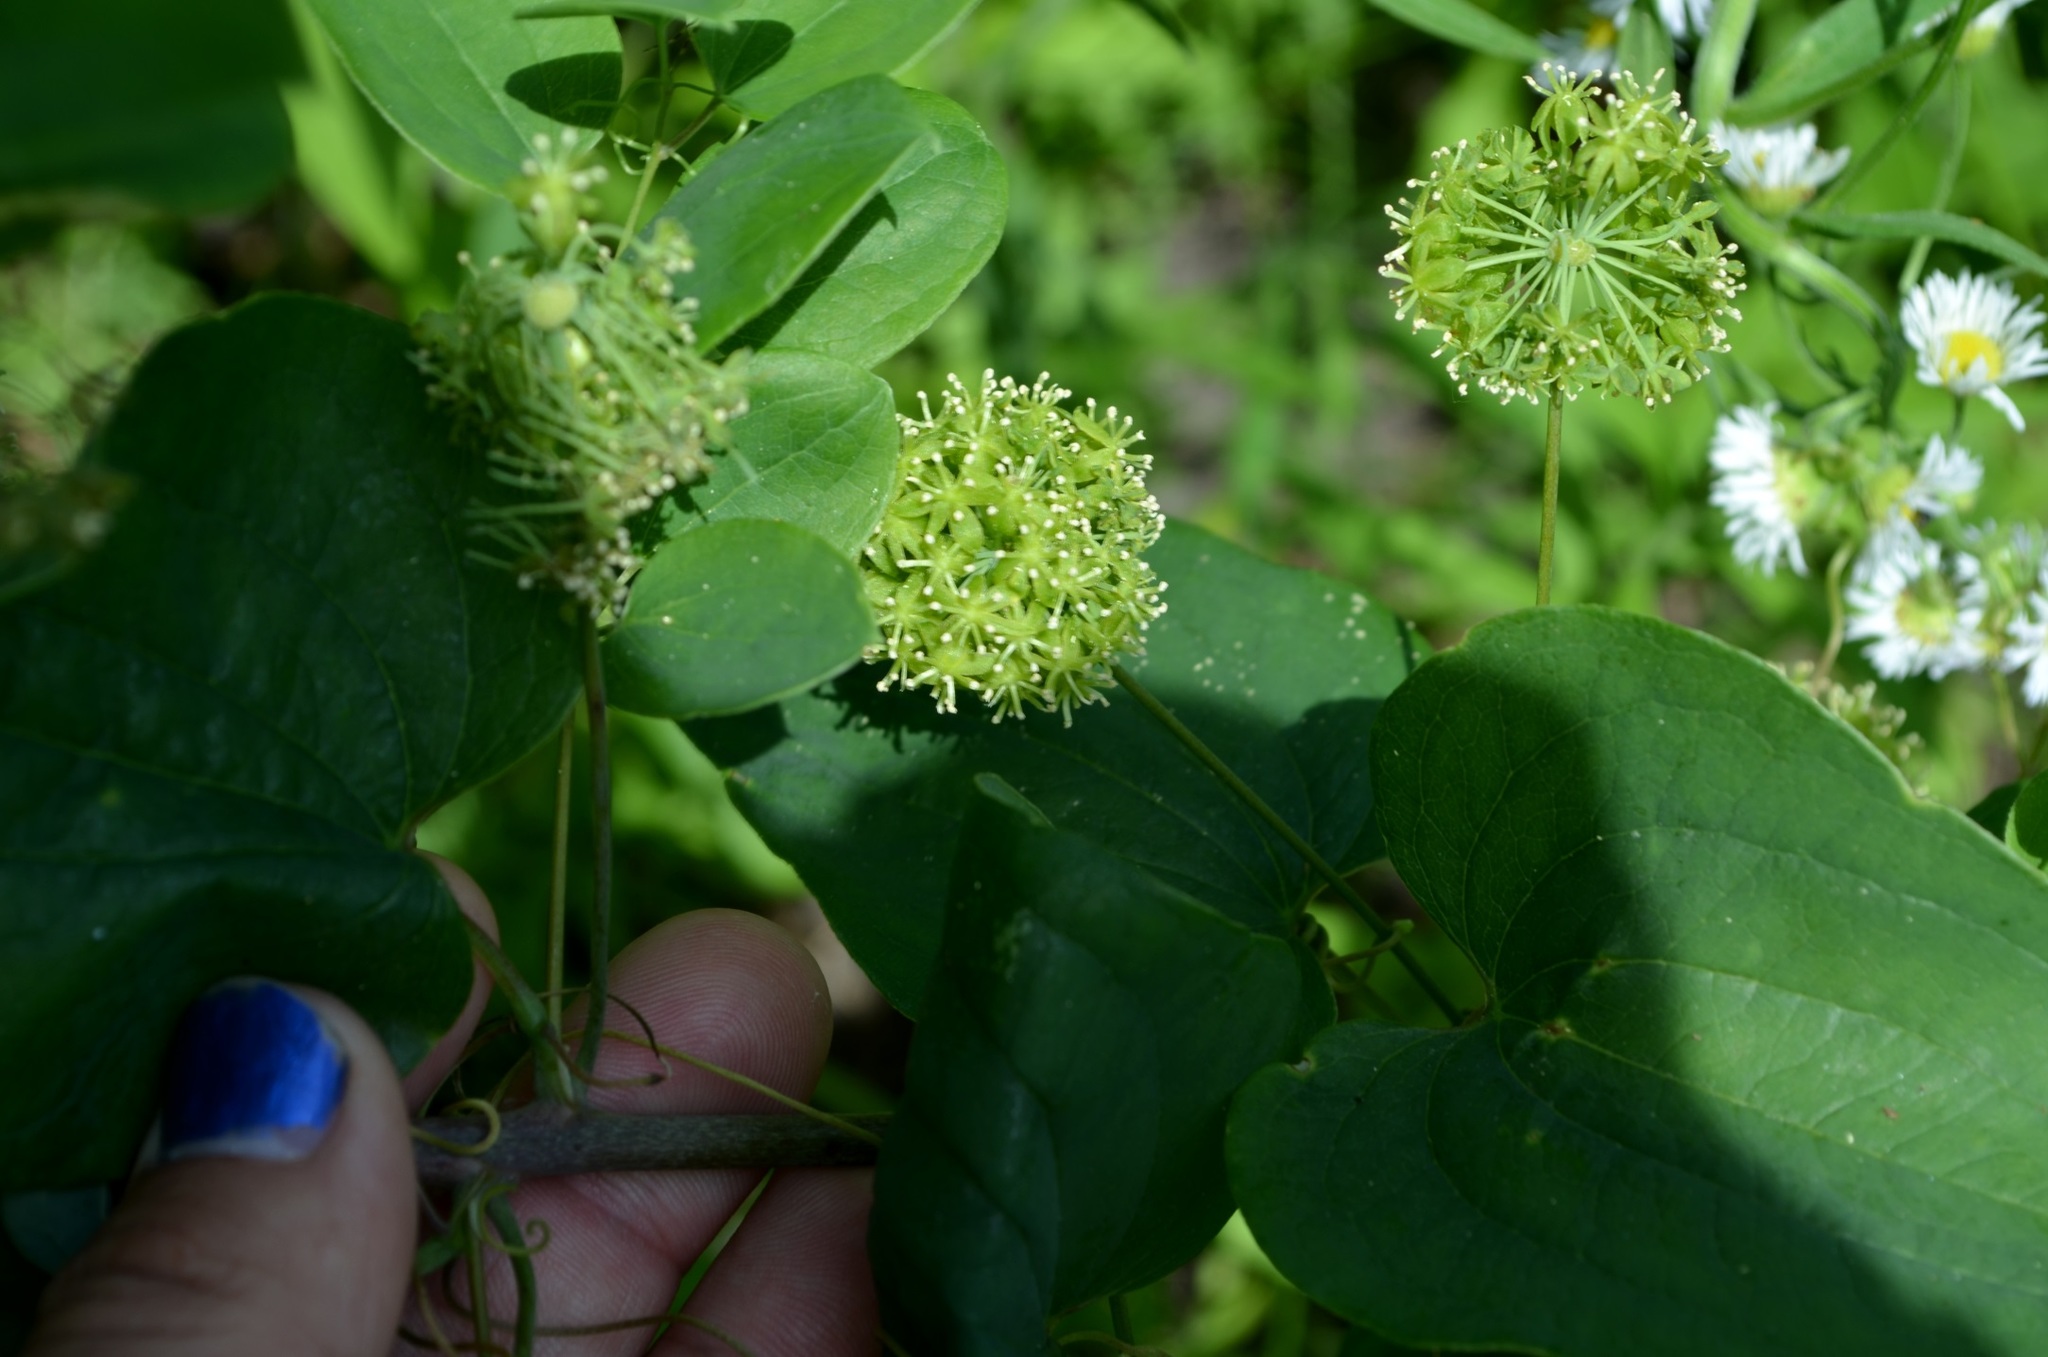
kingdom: Plantae
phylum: Tracheophyta
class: Liliopsida
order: Liliales
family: Smilacaceae
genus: Smilax
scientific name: Smilax lasioneura
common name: Blue ridge carrionflower
